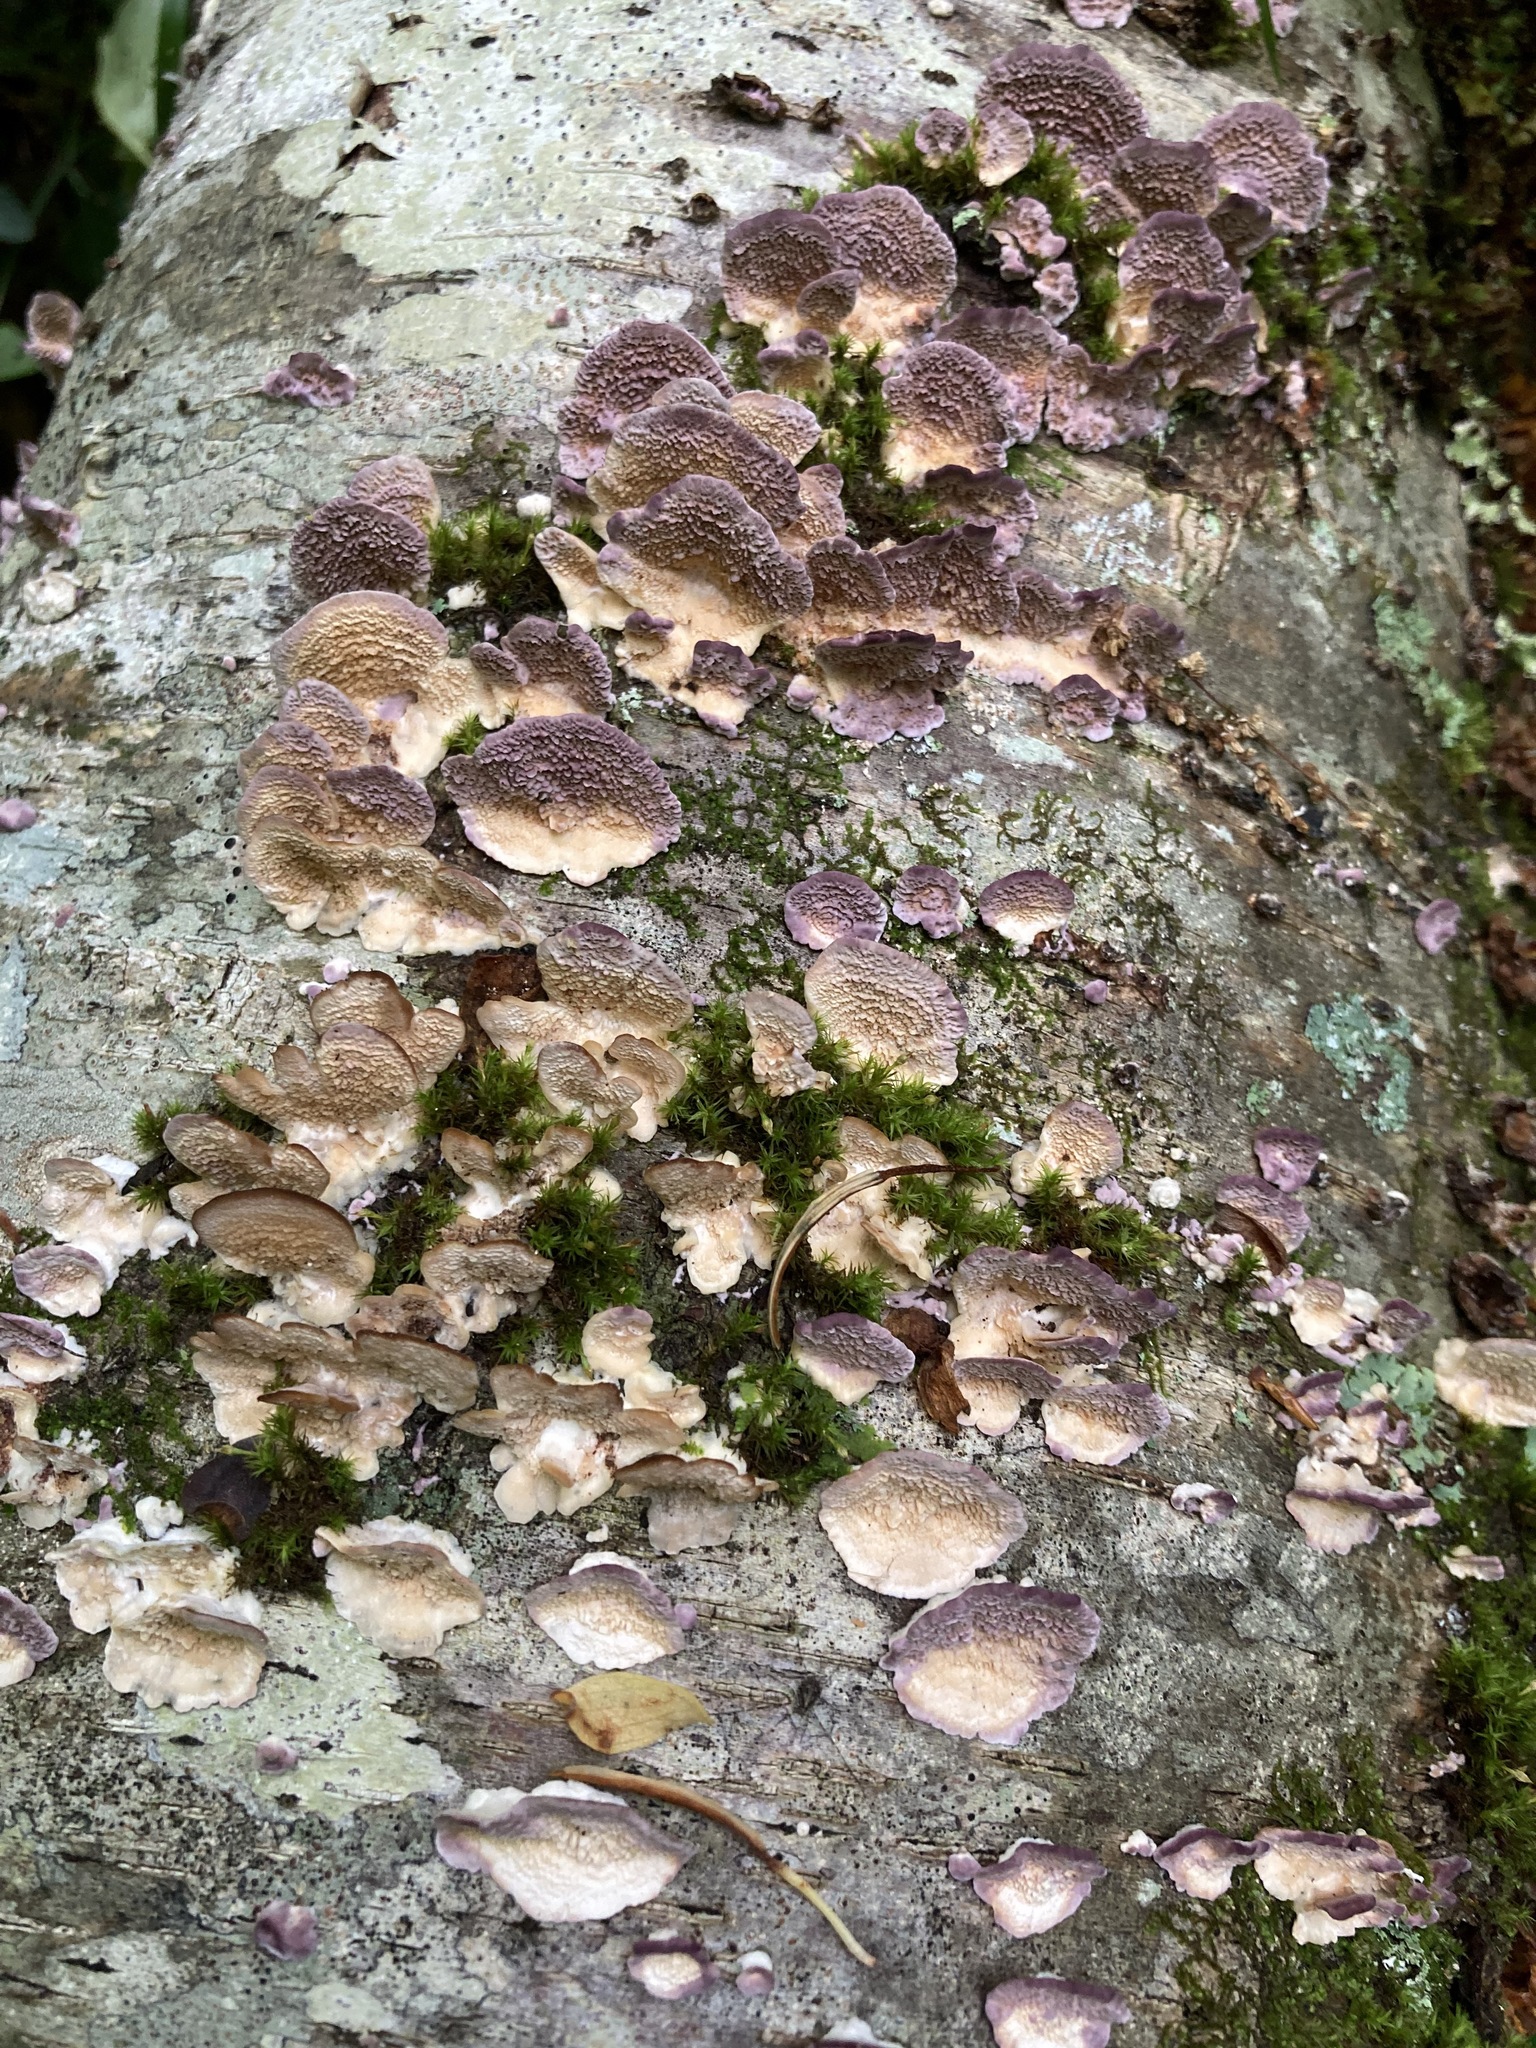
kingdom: Fungi
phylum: Basidiomycota
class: Agaricomycetes
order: Hymenochaetales
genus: Trichaptum
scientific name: Trichaptum biforme
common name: Violet-toothed polypore
